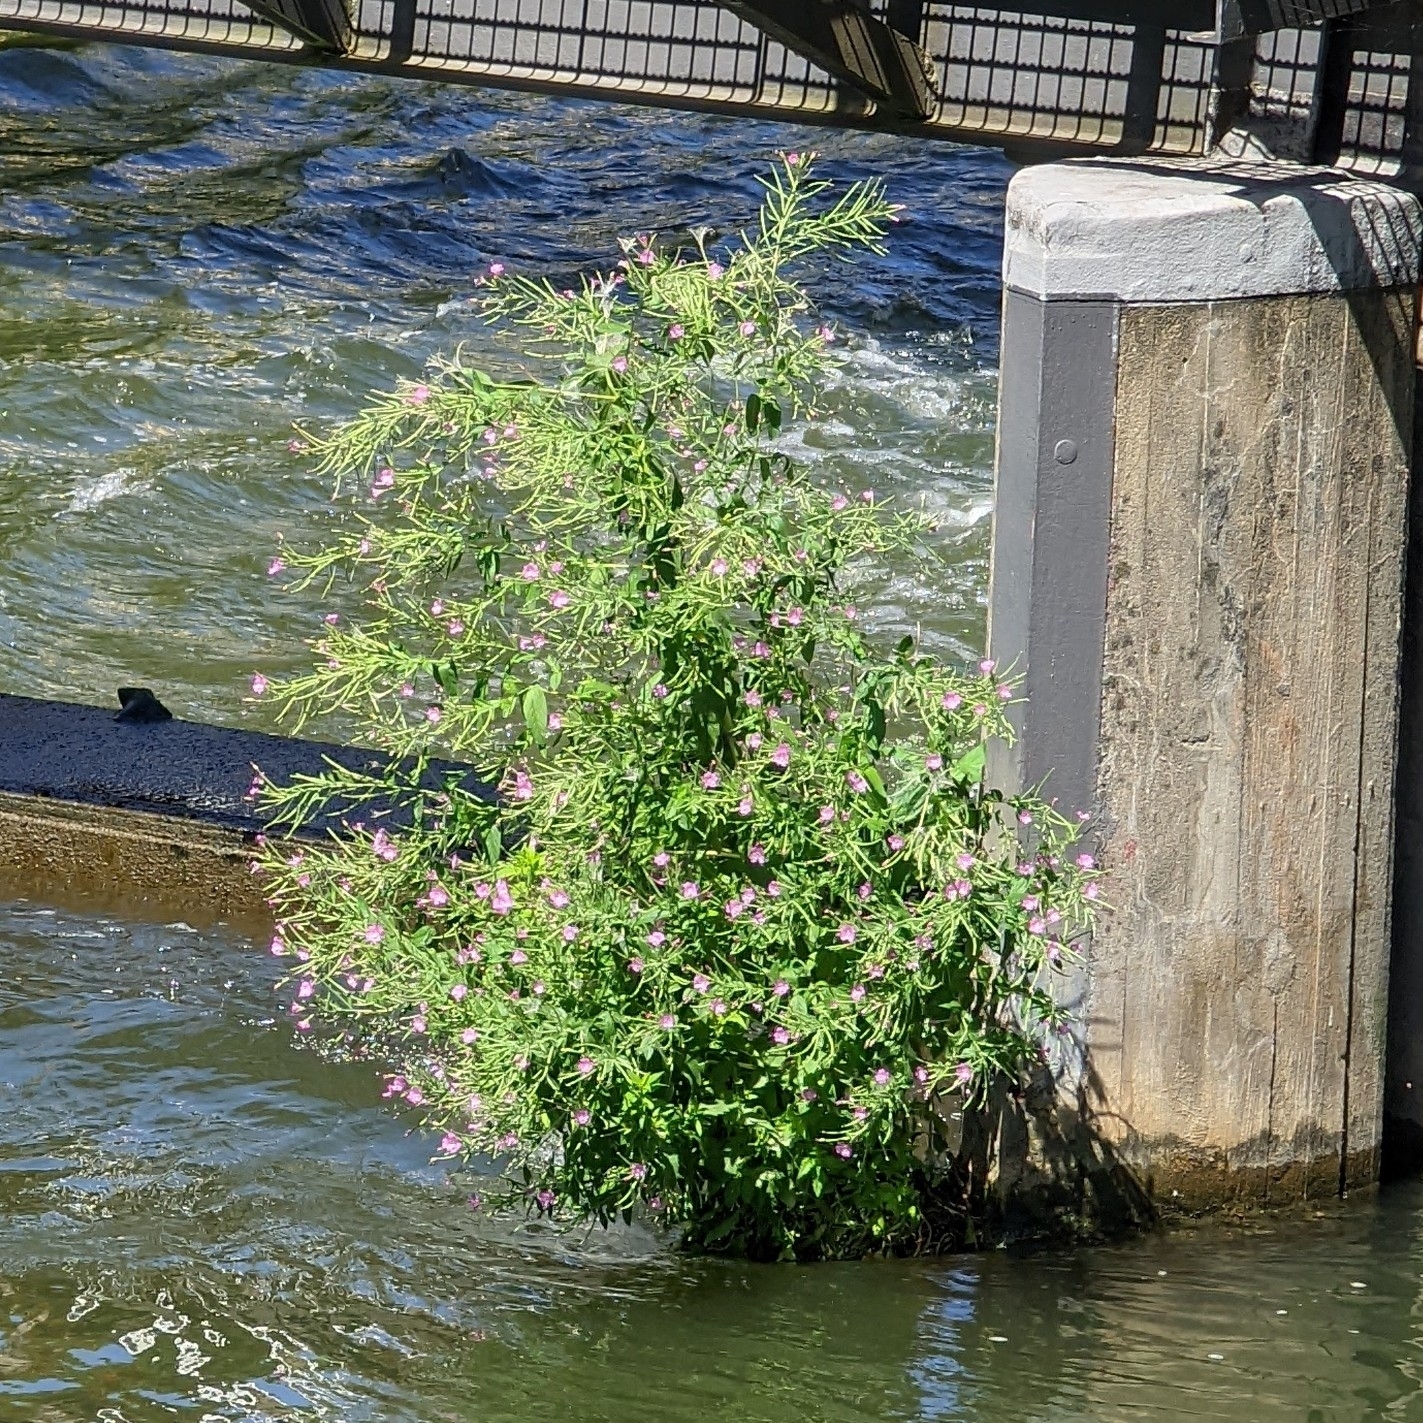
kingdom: Plantae
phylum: Tracheophyta
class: Magnoliopsida
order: Myrtales
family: Onagraceae
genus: Epilobium
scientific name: Epilobium hirsutum
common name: Great willowherb
